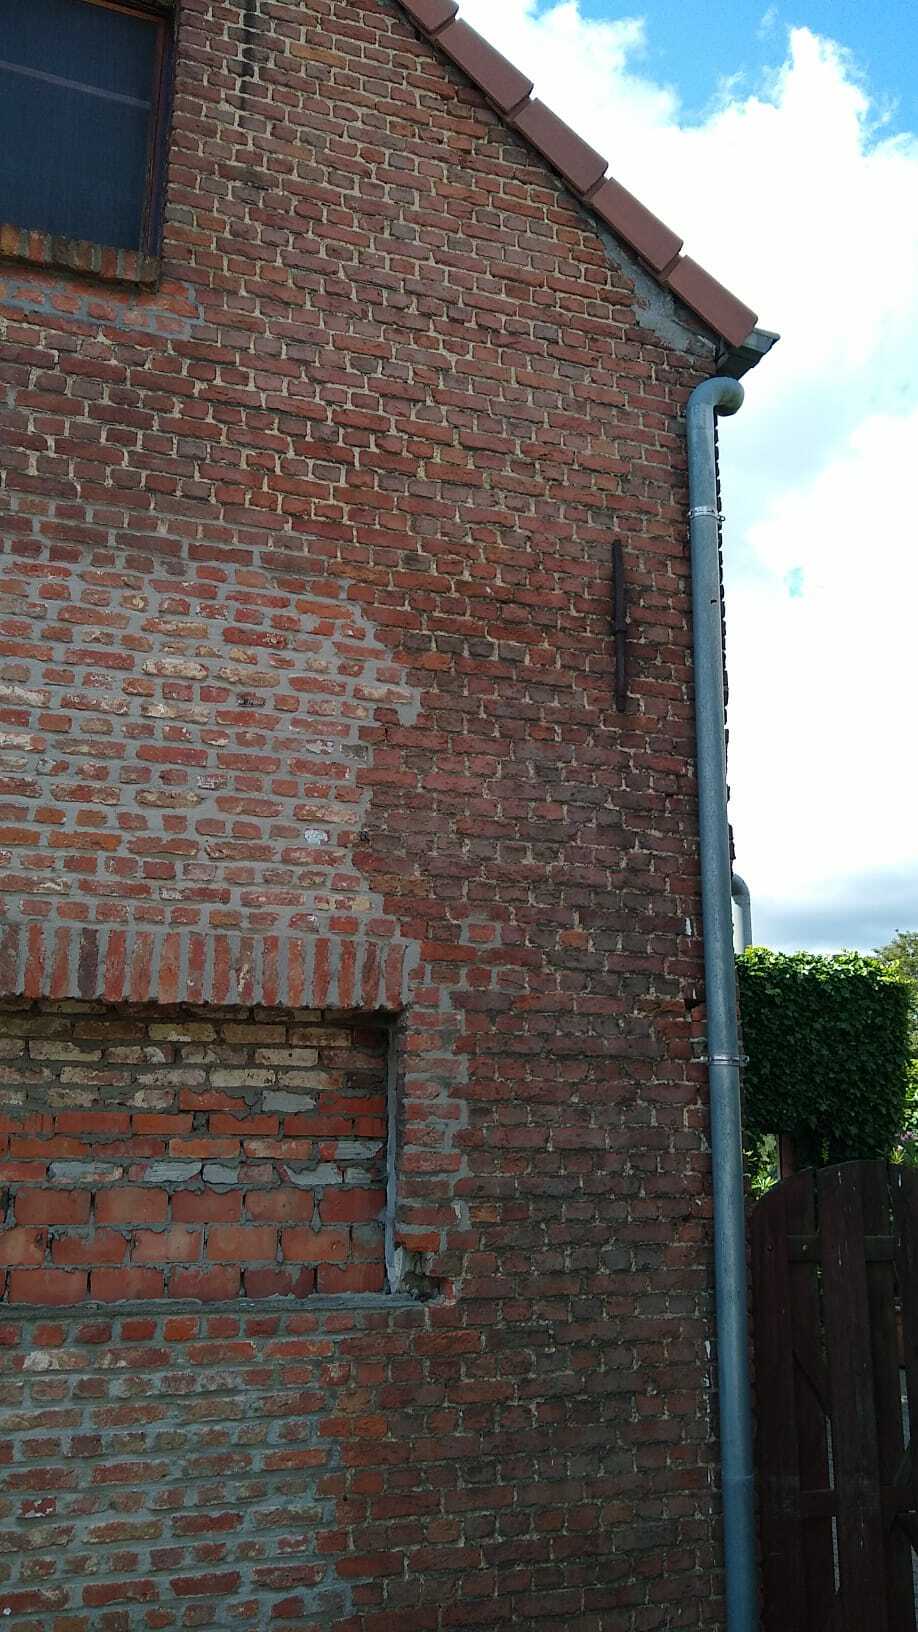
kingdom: Animalia
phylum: Arthropoda
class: Insecta
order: Hymenoptera
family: Vespidae
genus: Vespa
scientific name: Vespa velutina
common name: Asian hornet
